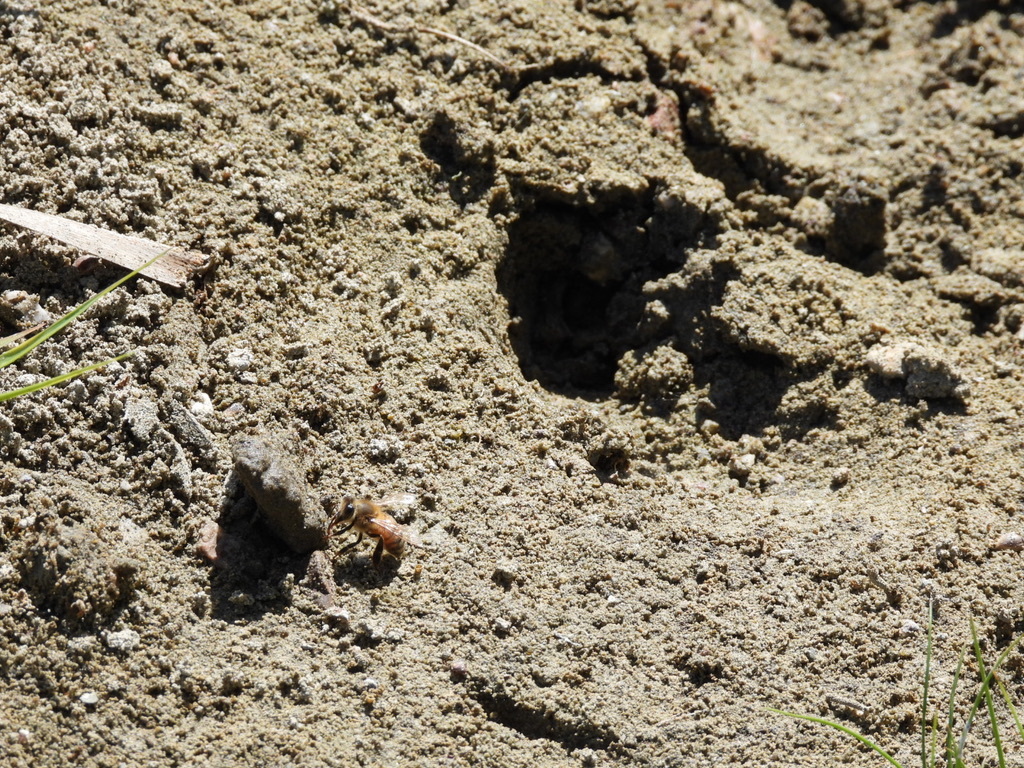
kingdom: Animalia
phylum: Arthropoda
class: Insecta
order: Hymenoptera
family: Apidae
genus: Apis
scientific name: Apis mellifera
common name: Honey bee
